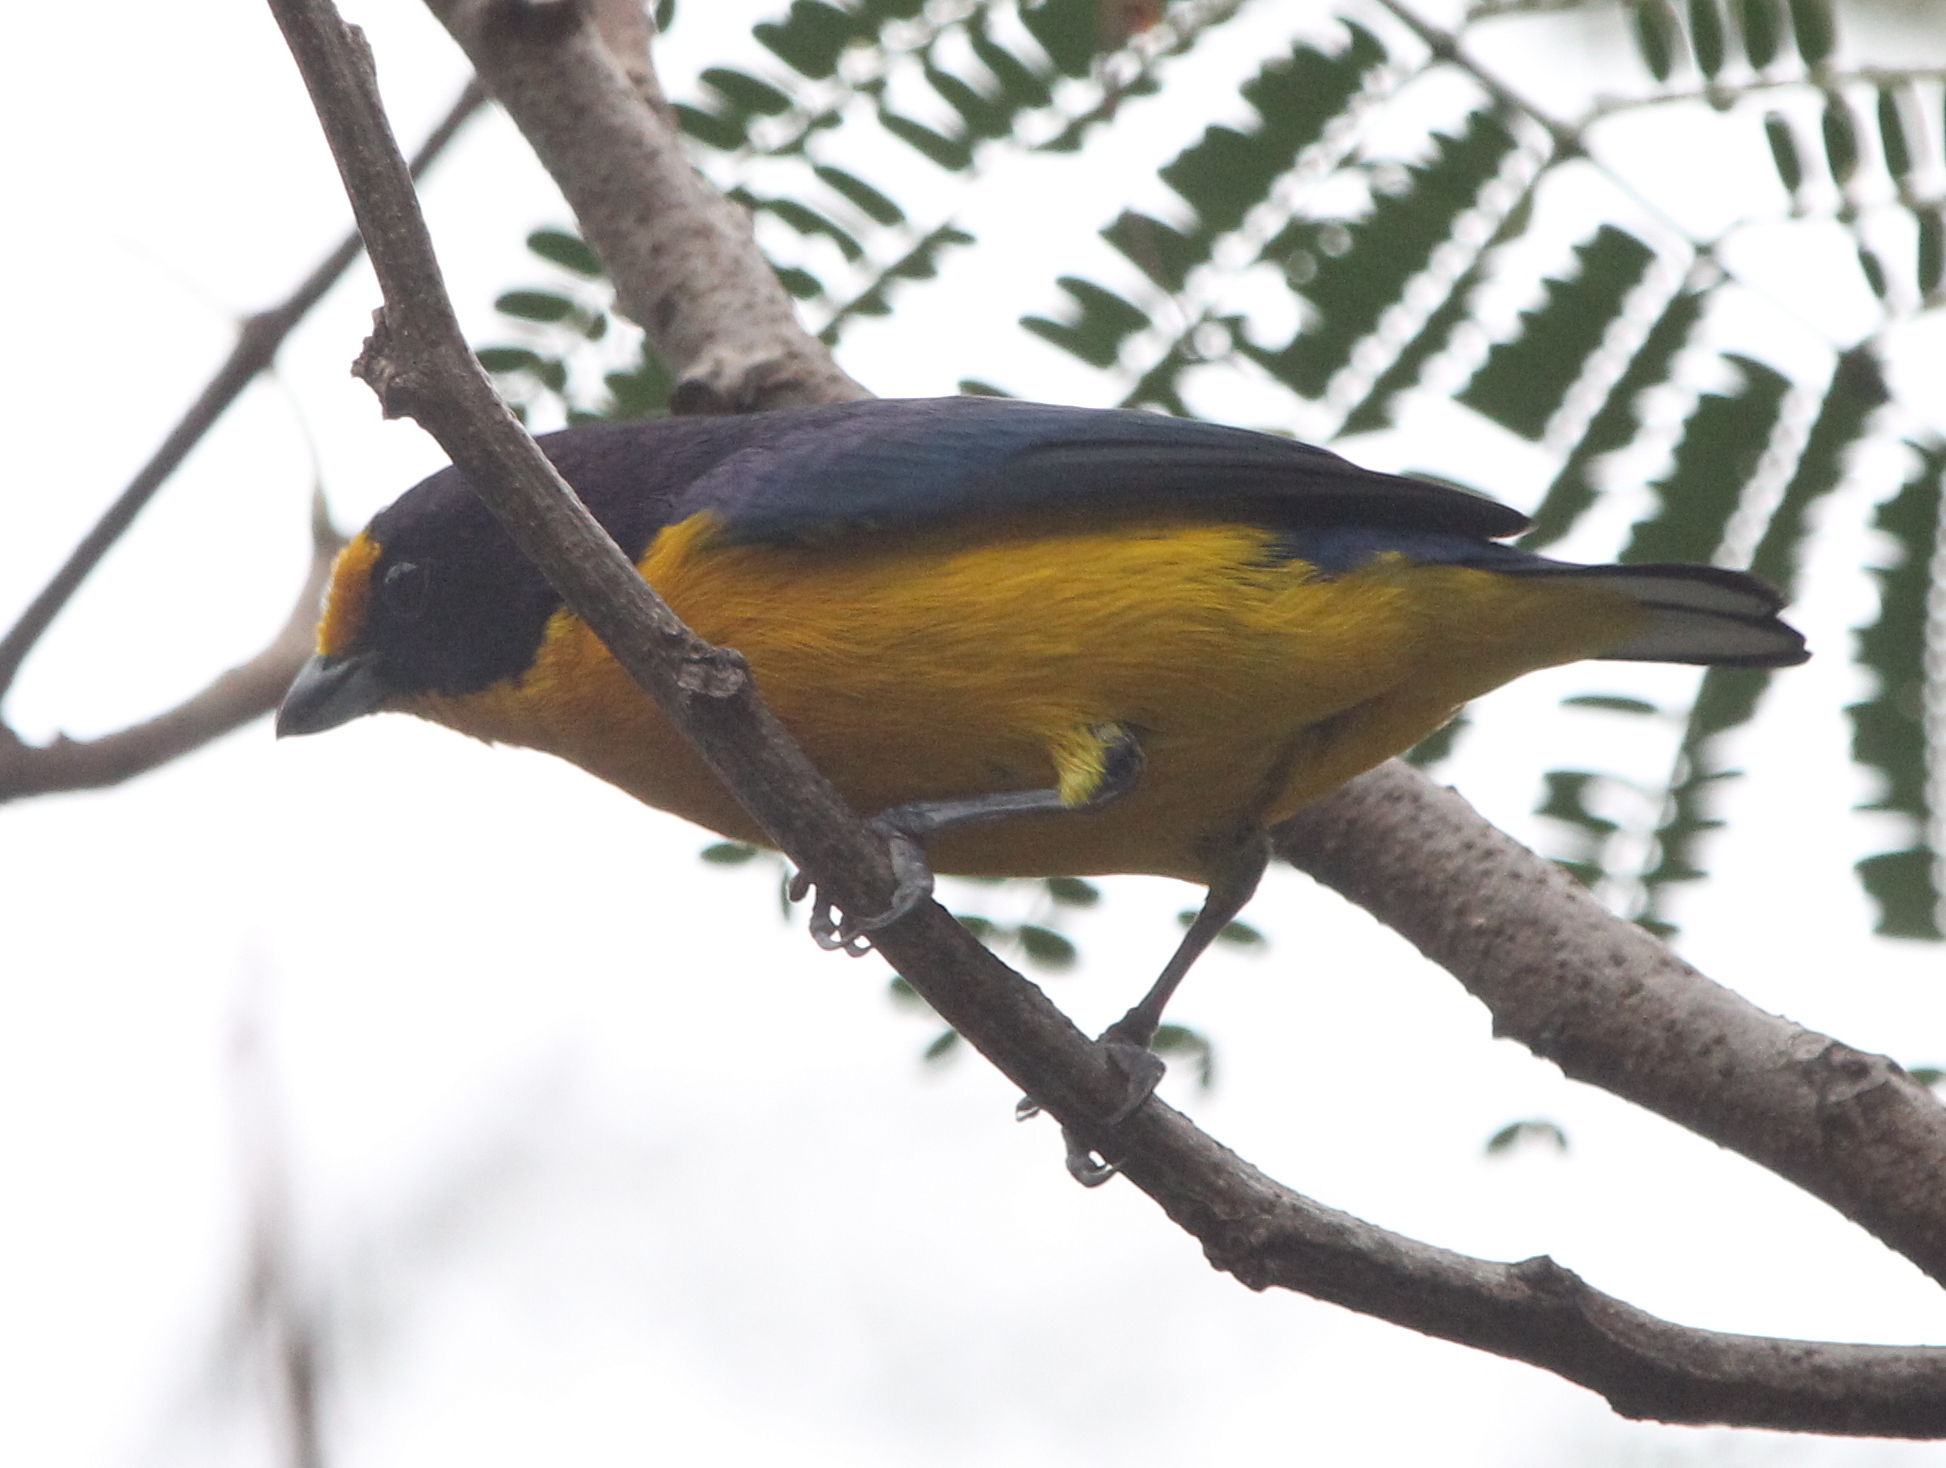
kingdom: Animalia
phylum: Chordata
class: Aves
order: Passeriformes
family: Fringillidae
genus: Euphonia
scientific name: Euphonia violacea
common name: Violaceous euphonia
